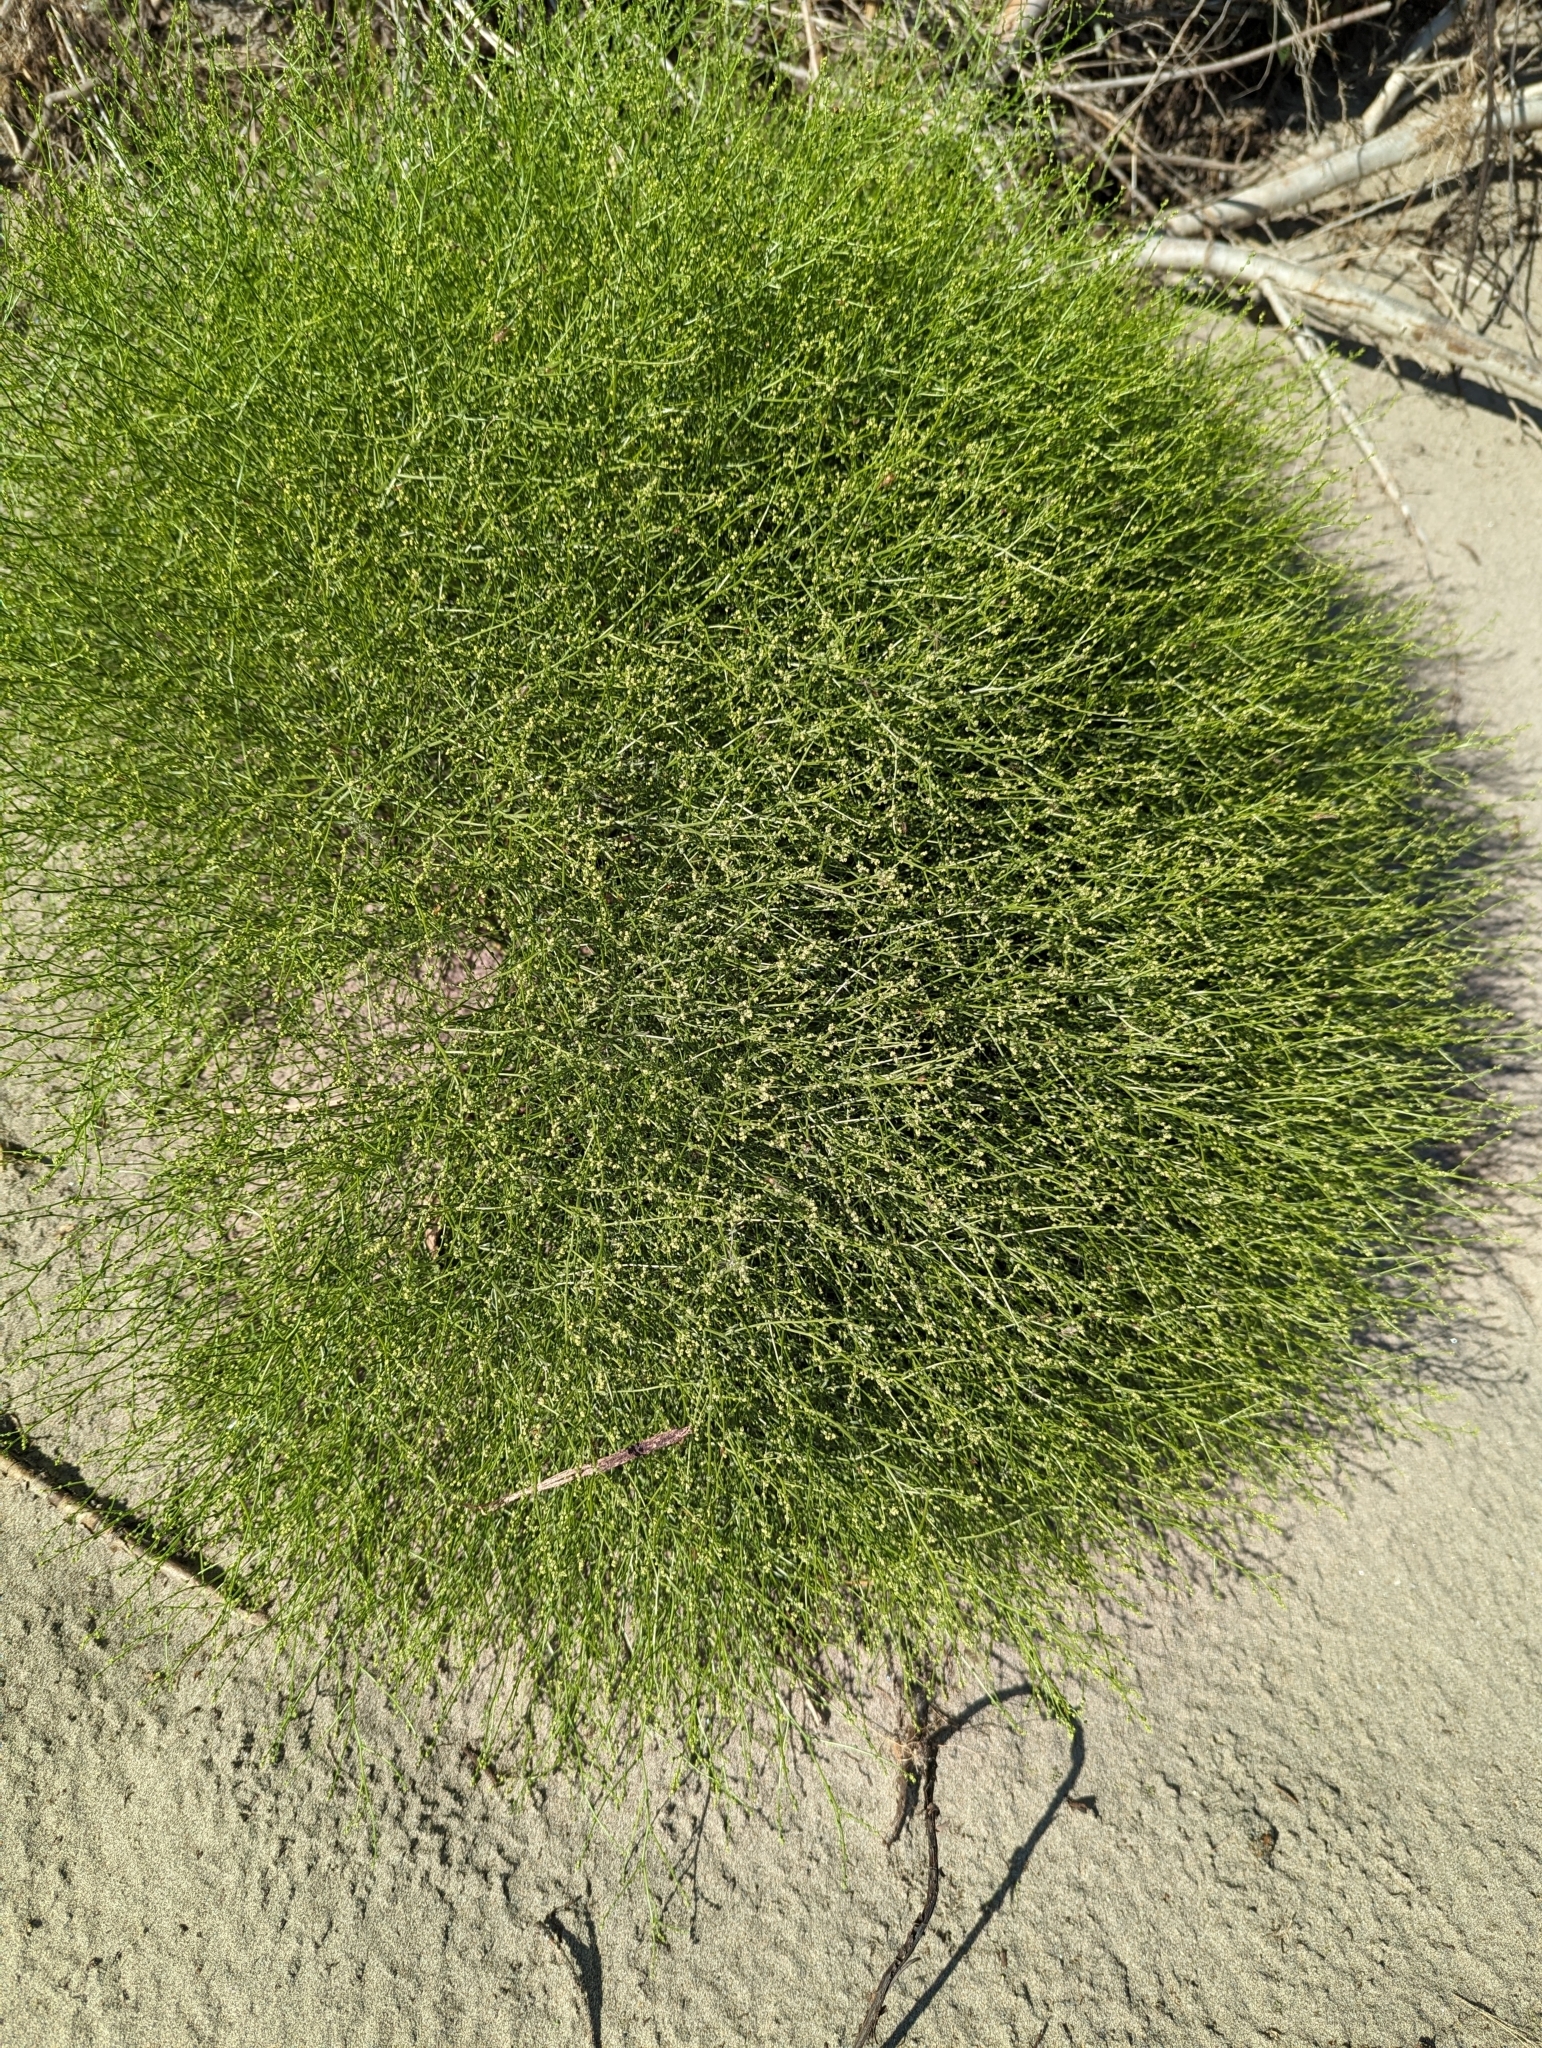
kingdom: Plantae
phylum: Tracheophyta
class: Magnoliopsida
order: Caryophyllales
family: Amaranthaceae
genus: Dysphania
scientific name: Dysphania atriplicifolia
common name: Plains tumbleweed
